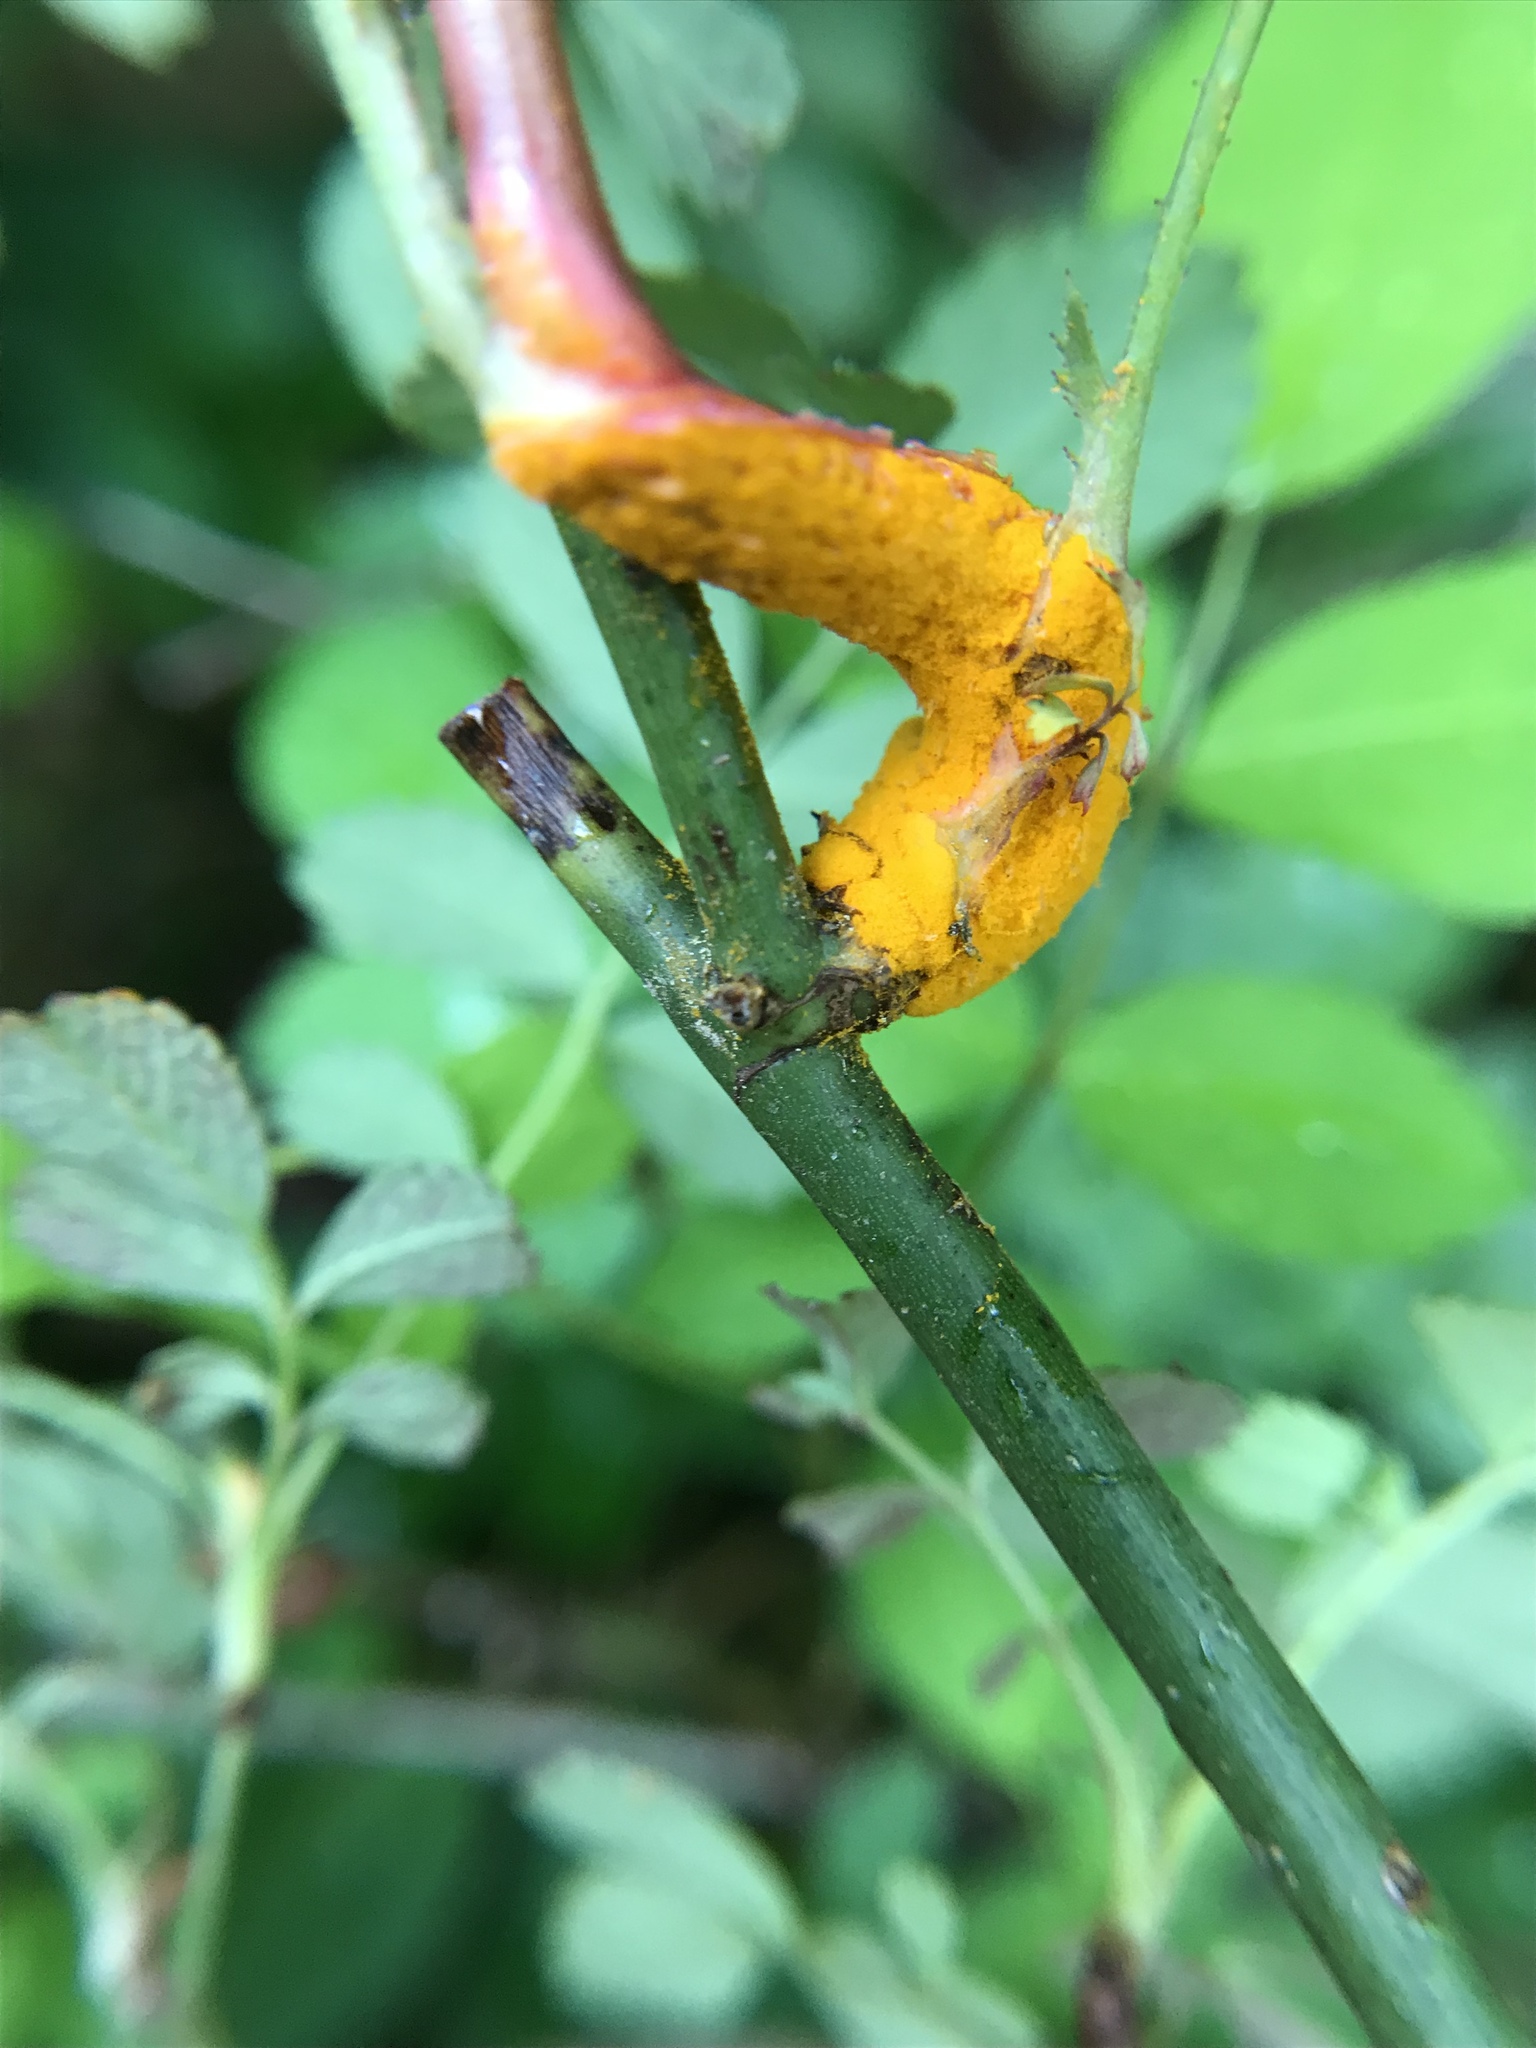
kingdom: Fungi
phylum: Basidiomycota
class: Pucciniomycetes
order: Pucciniales
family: Phragmidiaceae
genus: Phragmidium
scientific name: Phragmidium rosae-multiflorae
